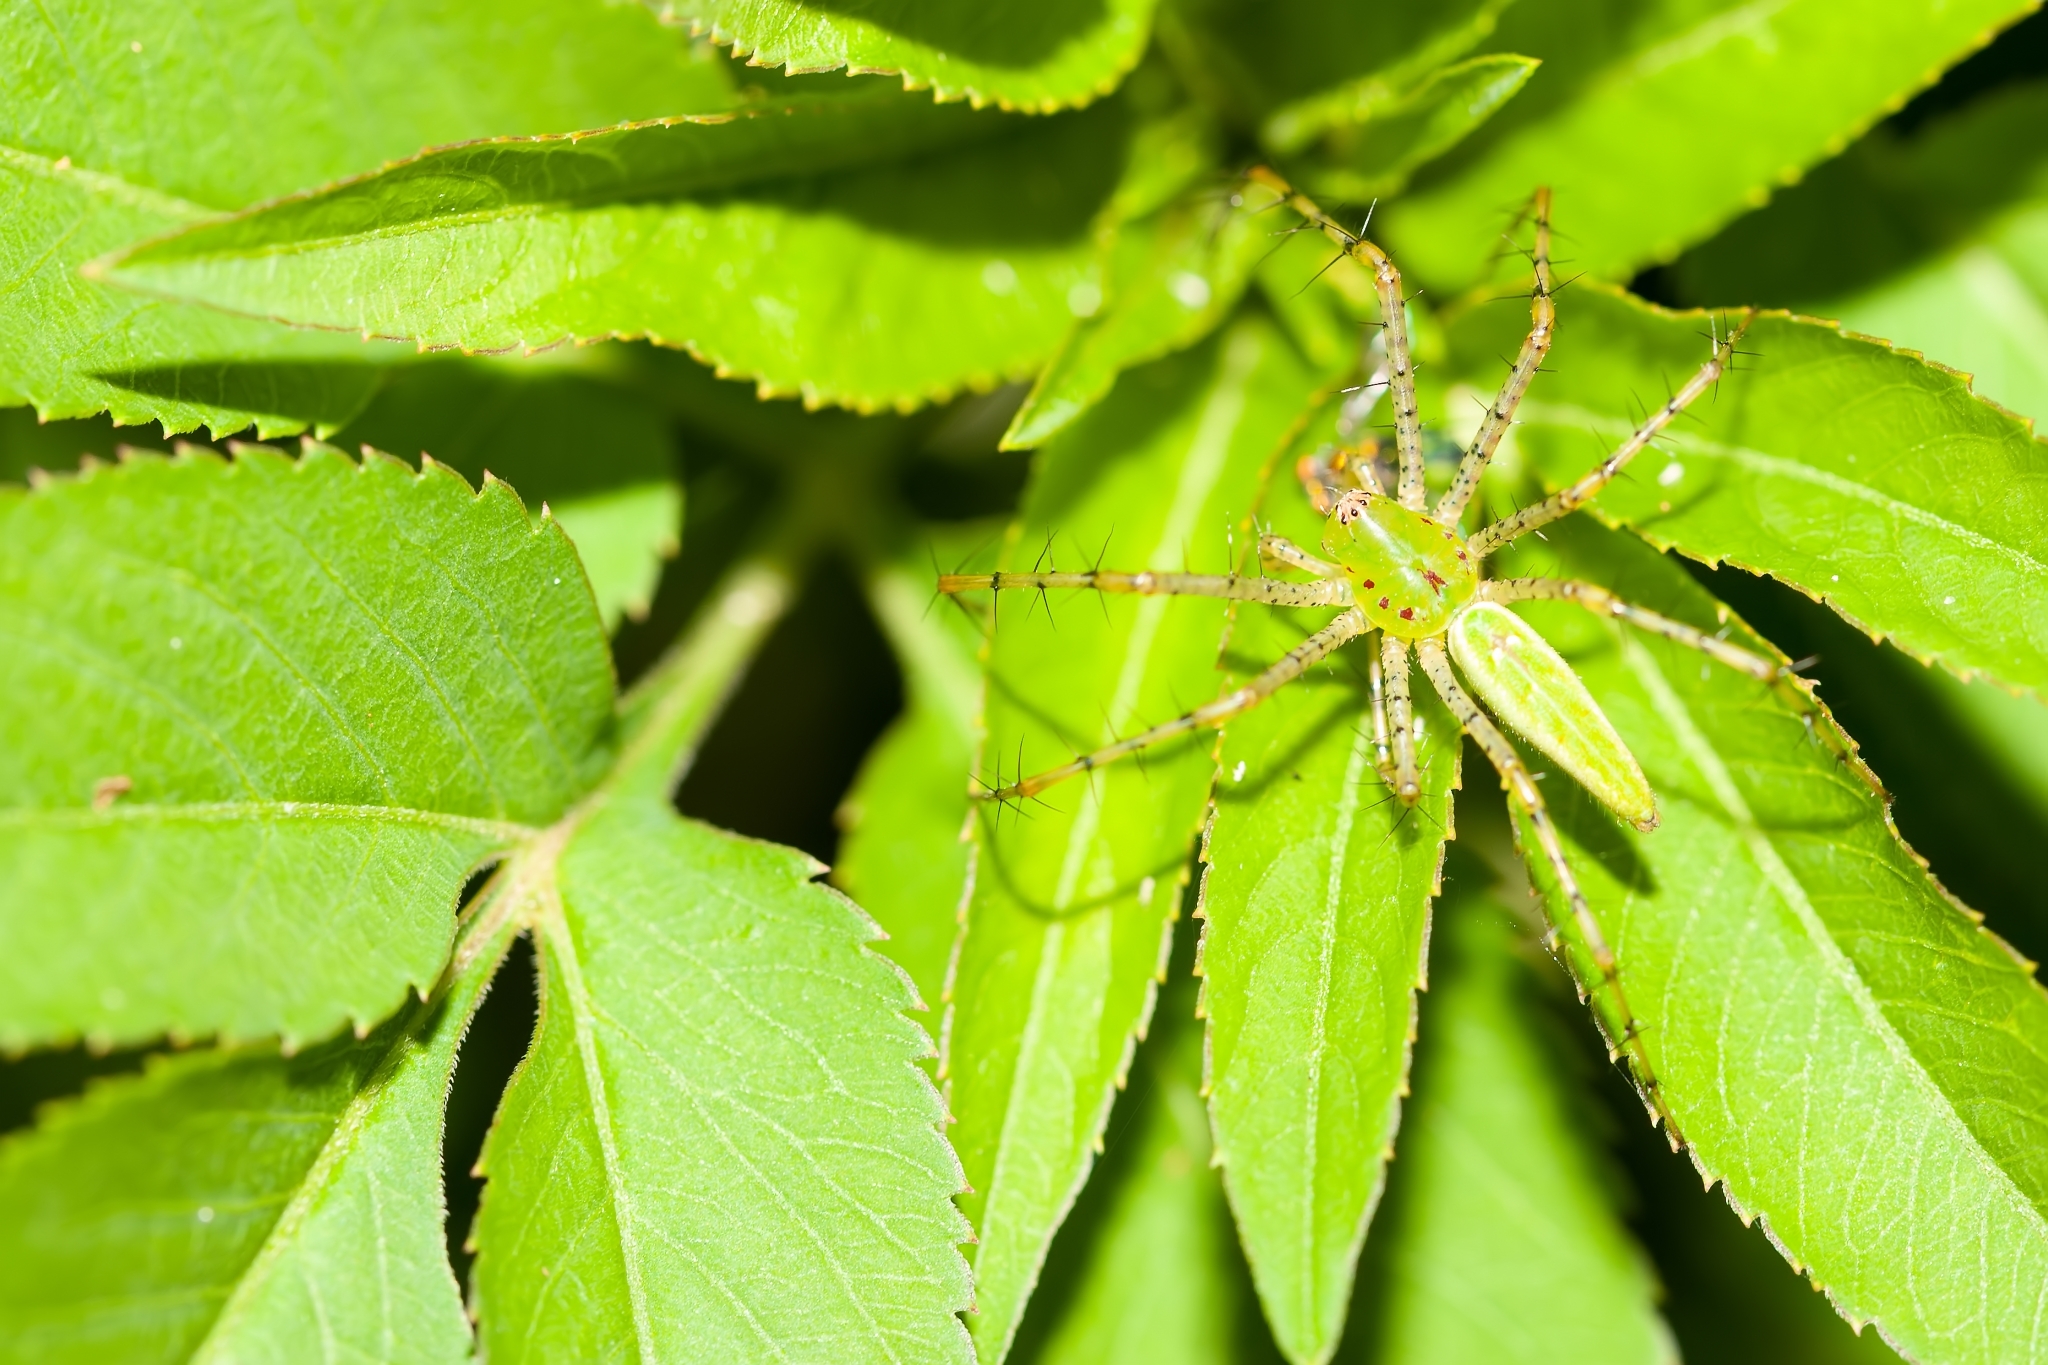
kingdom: Animalia
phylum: Arthropoda
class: Arachnida
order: Araneae
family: Oxyopidae
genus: Peucetia
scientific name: Peucetia viridans
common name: Lynx spiders
